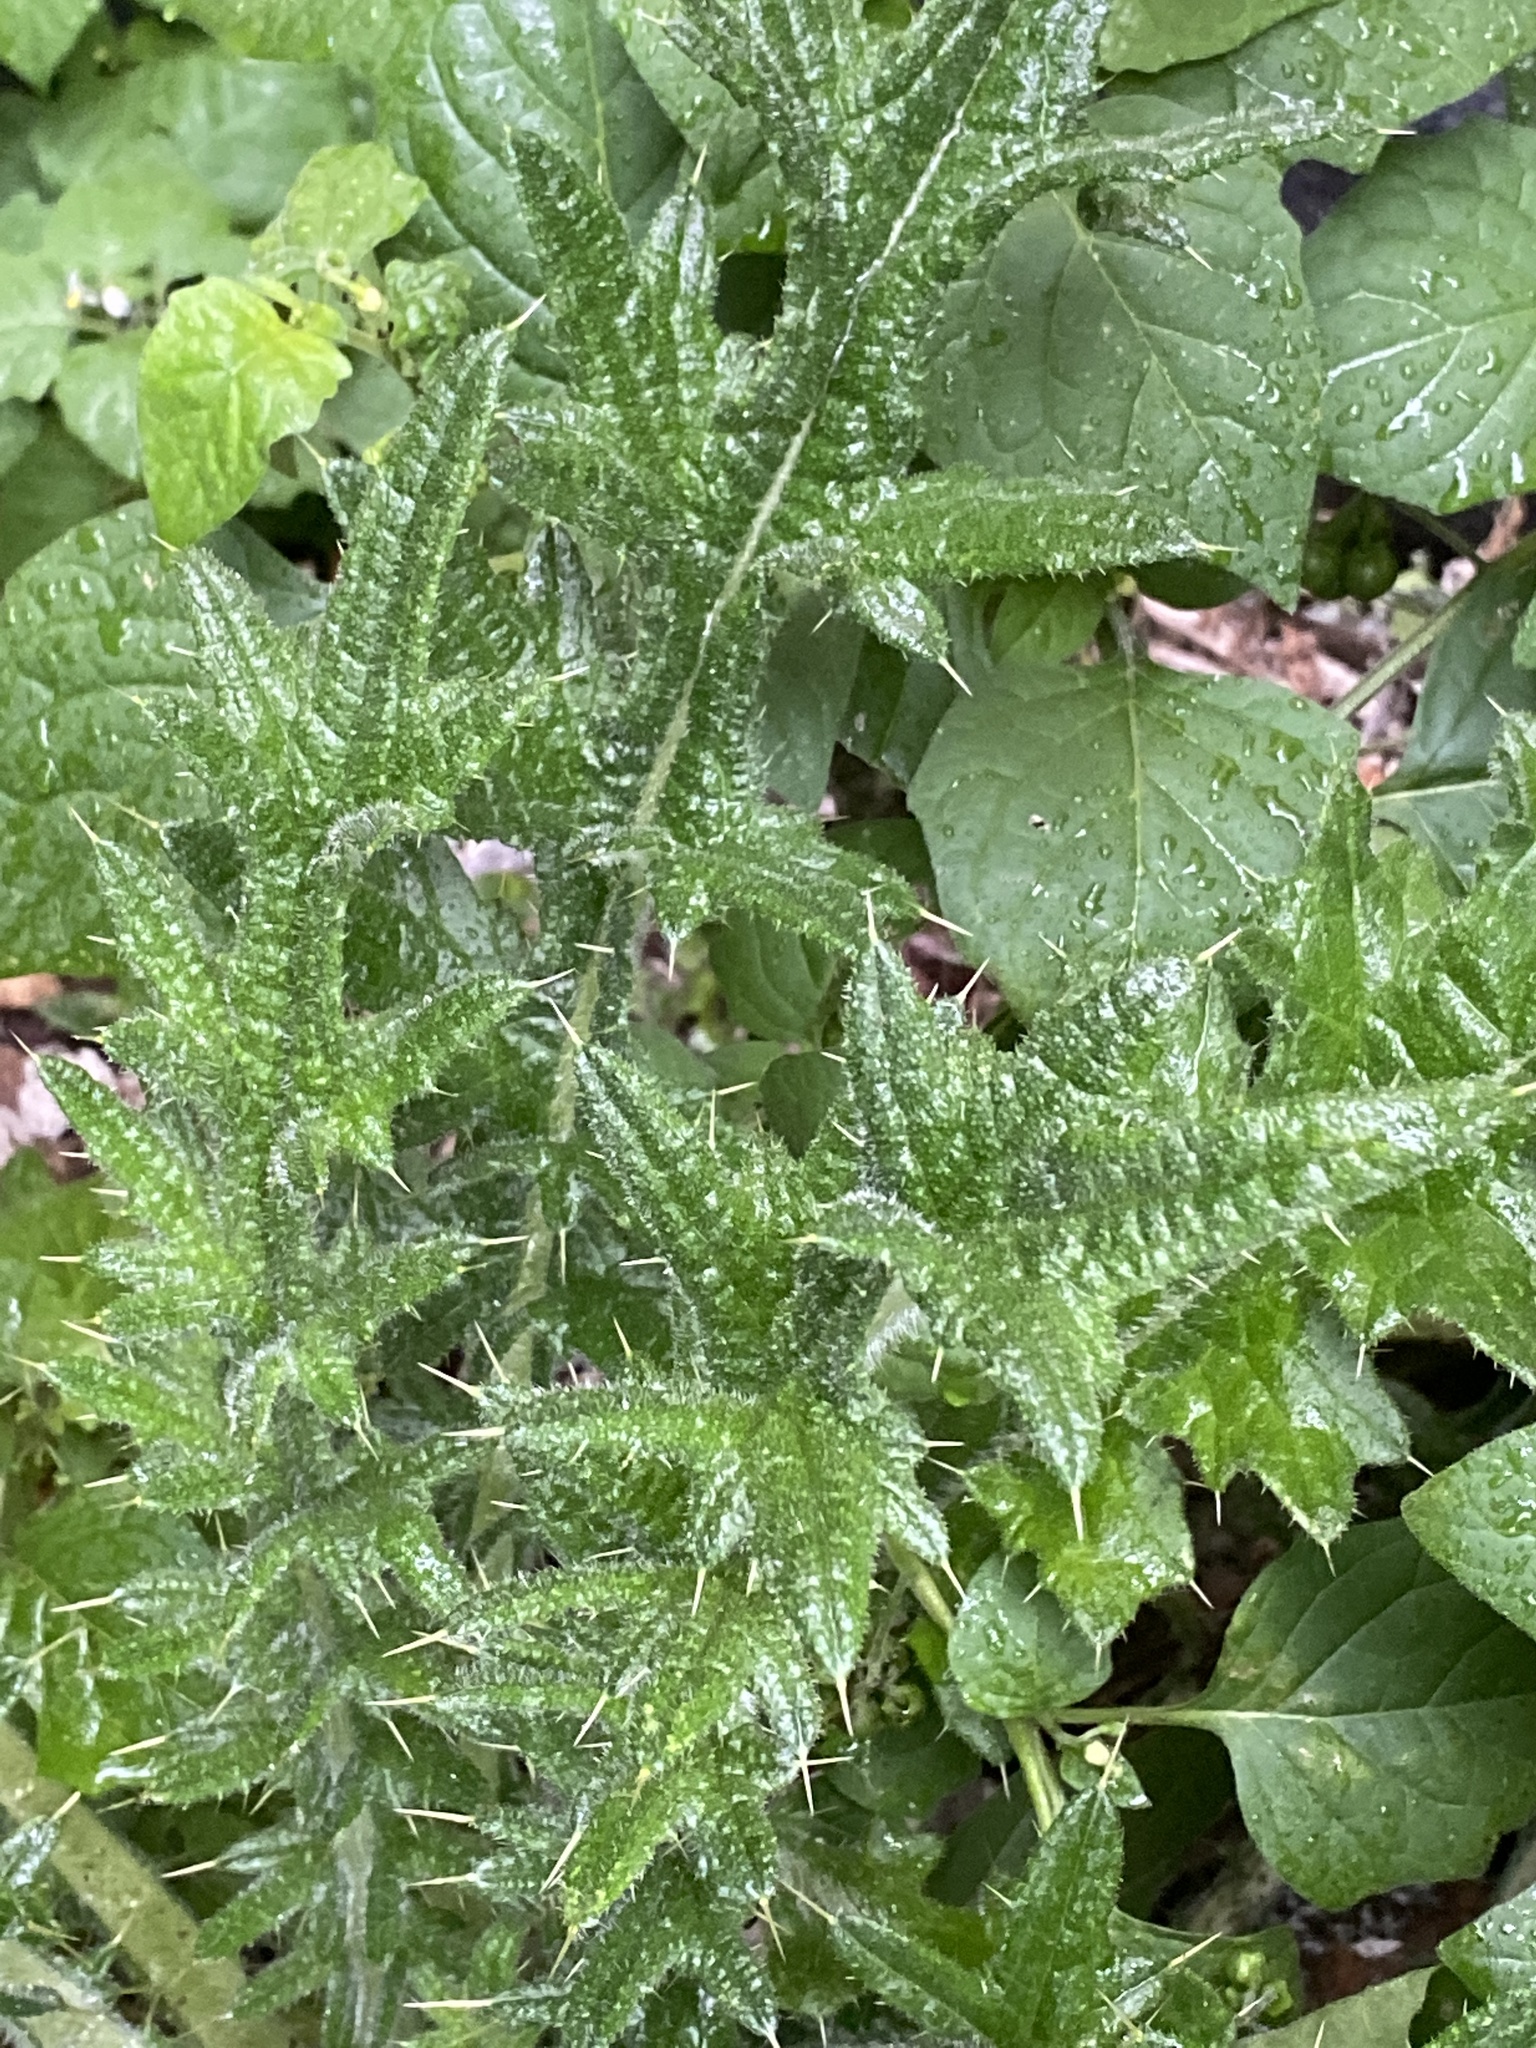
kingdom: Plantae
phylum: Tracheophyta
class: Magnoliopsida
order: Asterales
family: Asteraceae
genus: Cirsium
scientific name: Cirsium vulgare
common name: Bull thistle
